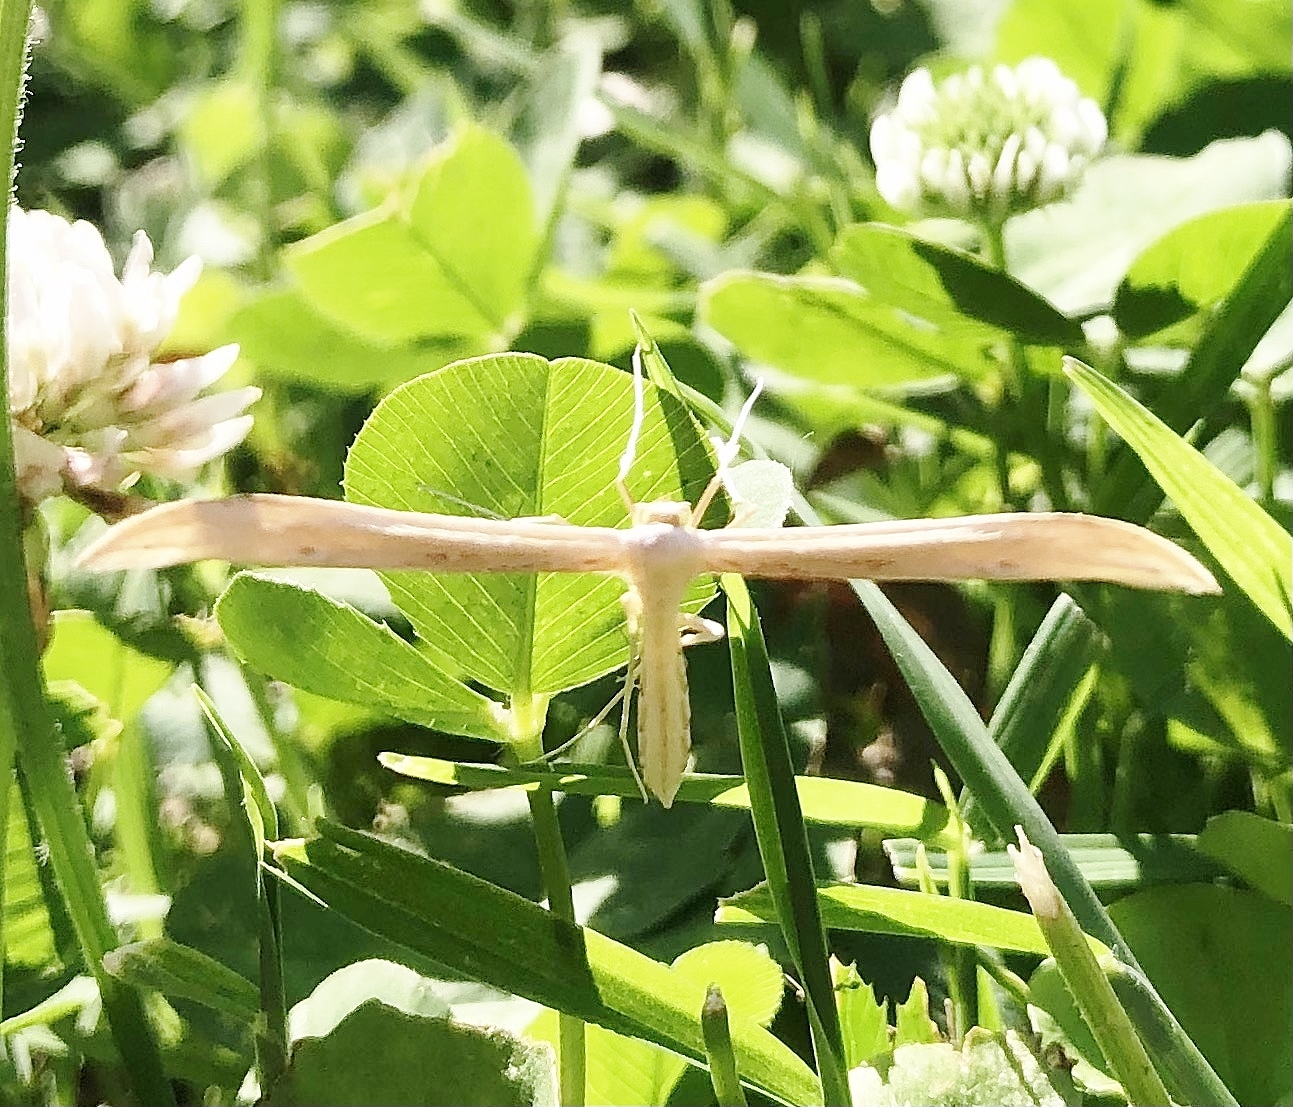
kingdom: Animalia
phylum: Arthropoda
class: Insecta
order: Lepidoptera
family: Pterophoridae
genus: Hellinsia
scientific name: Hellinsia balanotes
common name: Baccharis borer
